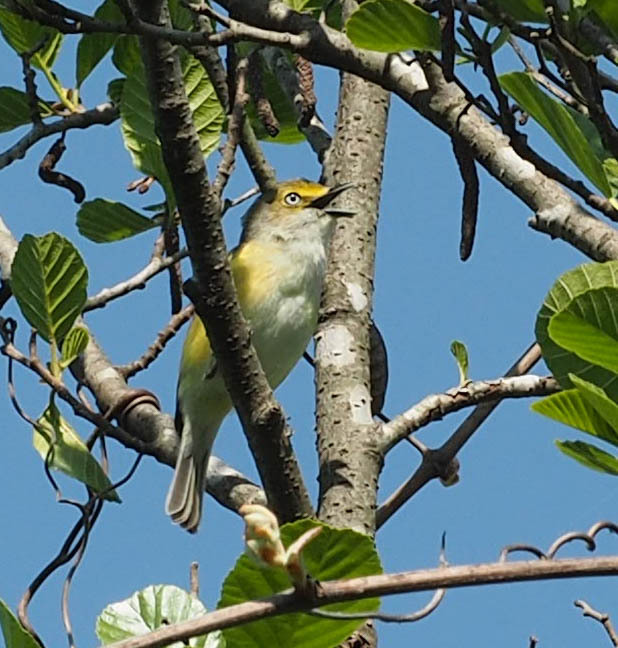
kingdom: Animalia
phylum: Chordata
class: Aves
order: Passeriformes
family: Vireonidae
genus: Vireo
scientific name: Vireo griseus
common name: White-eyed vireo
